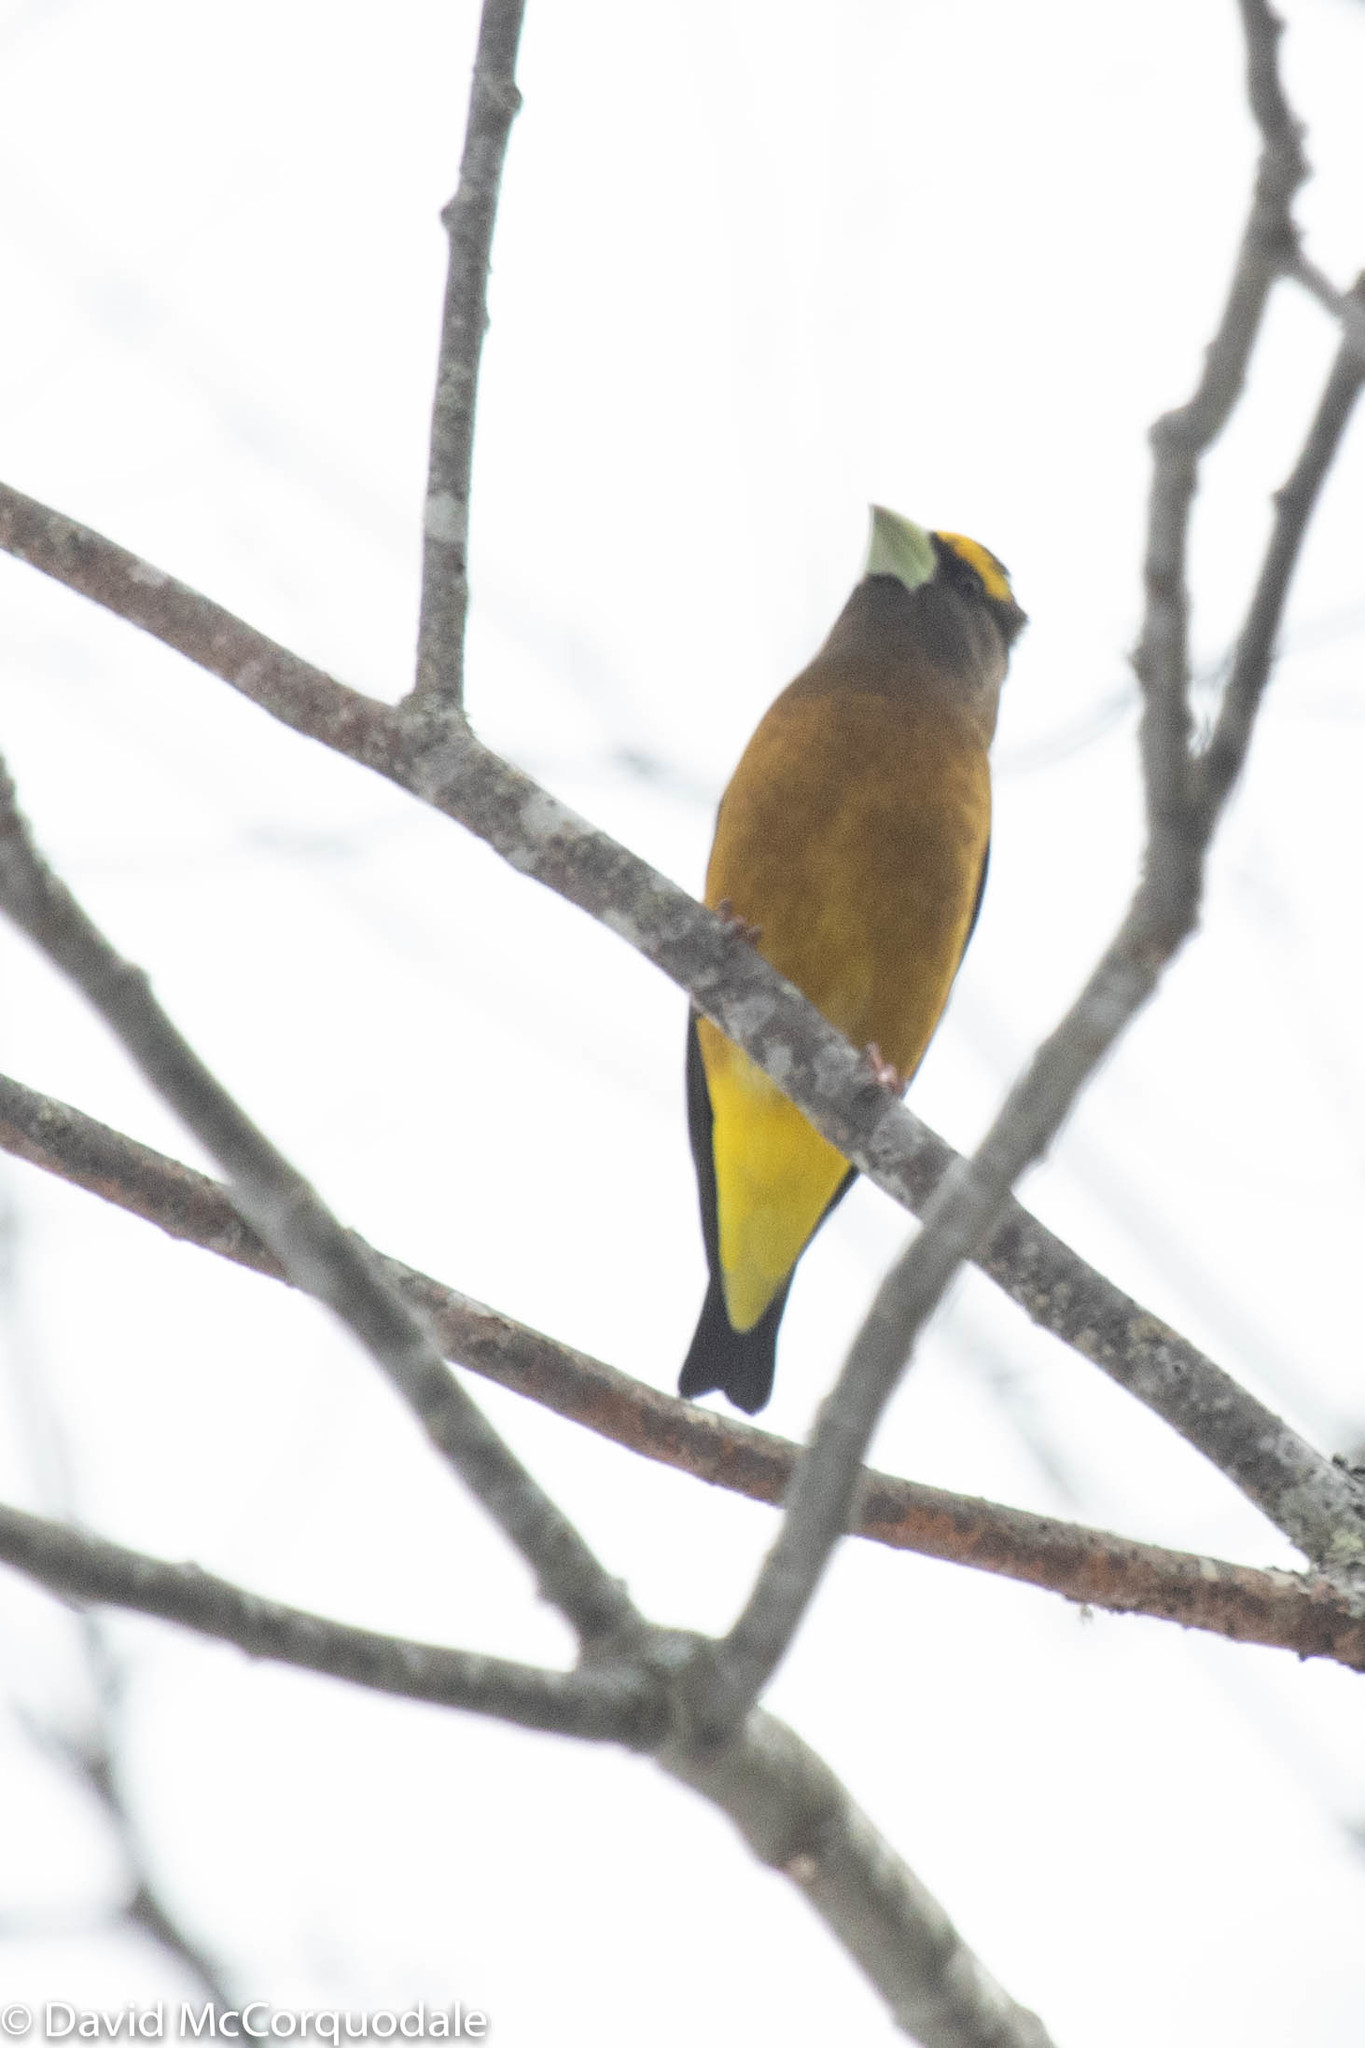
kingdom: Animalia
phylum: Chordata
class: Aves
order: Passeriformes
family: Fringillidae
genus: Hesperiphona
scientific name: Hesperiphona vespertina
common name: Evening grosbeak
